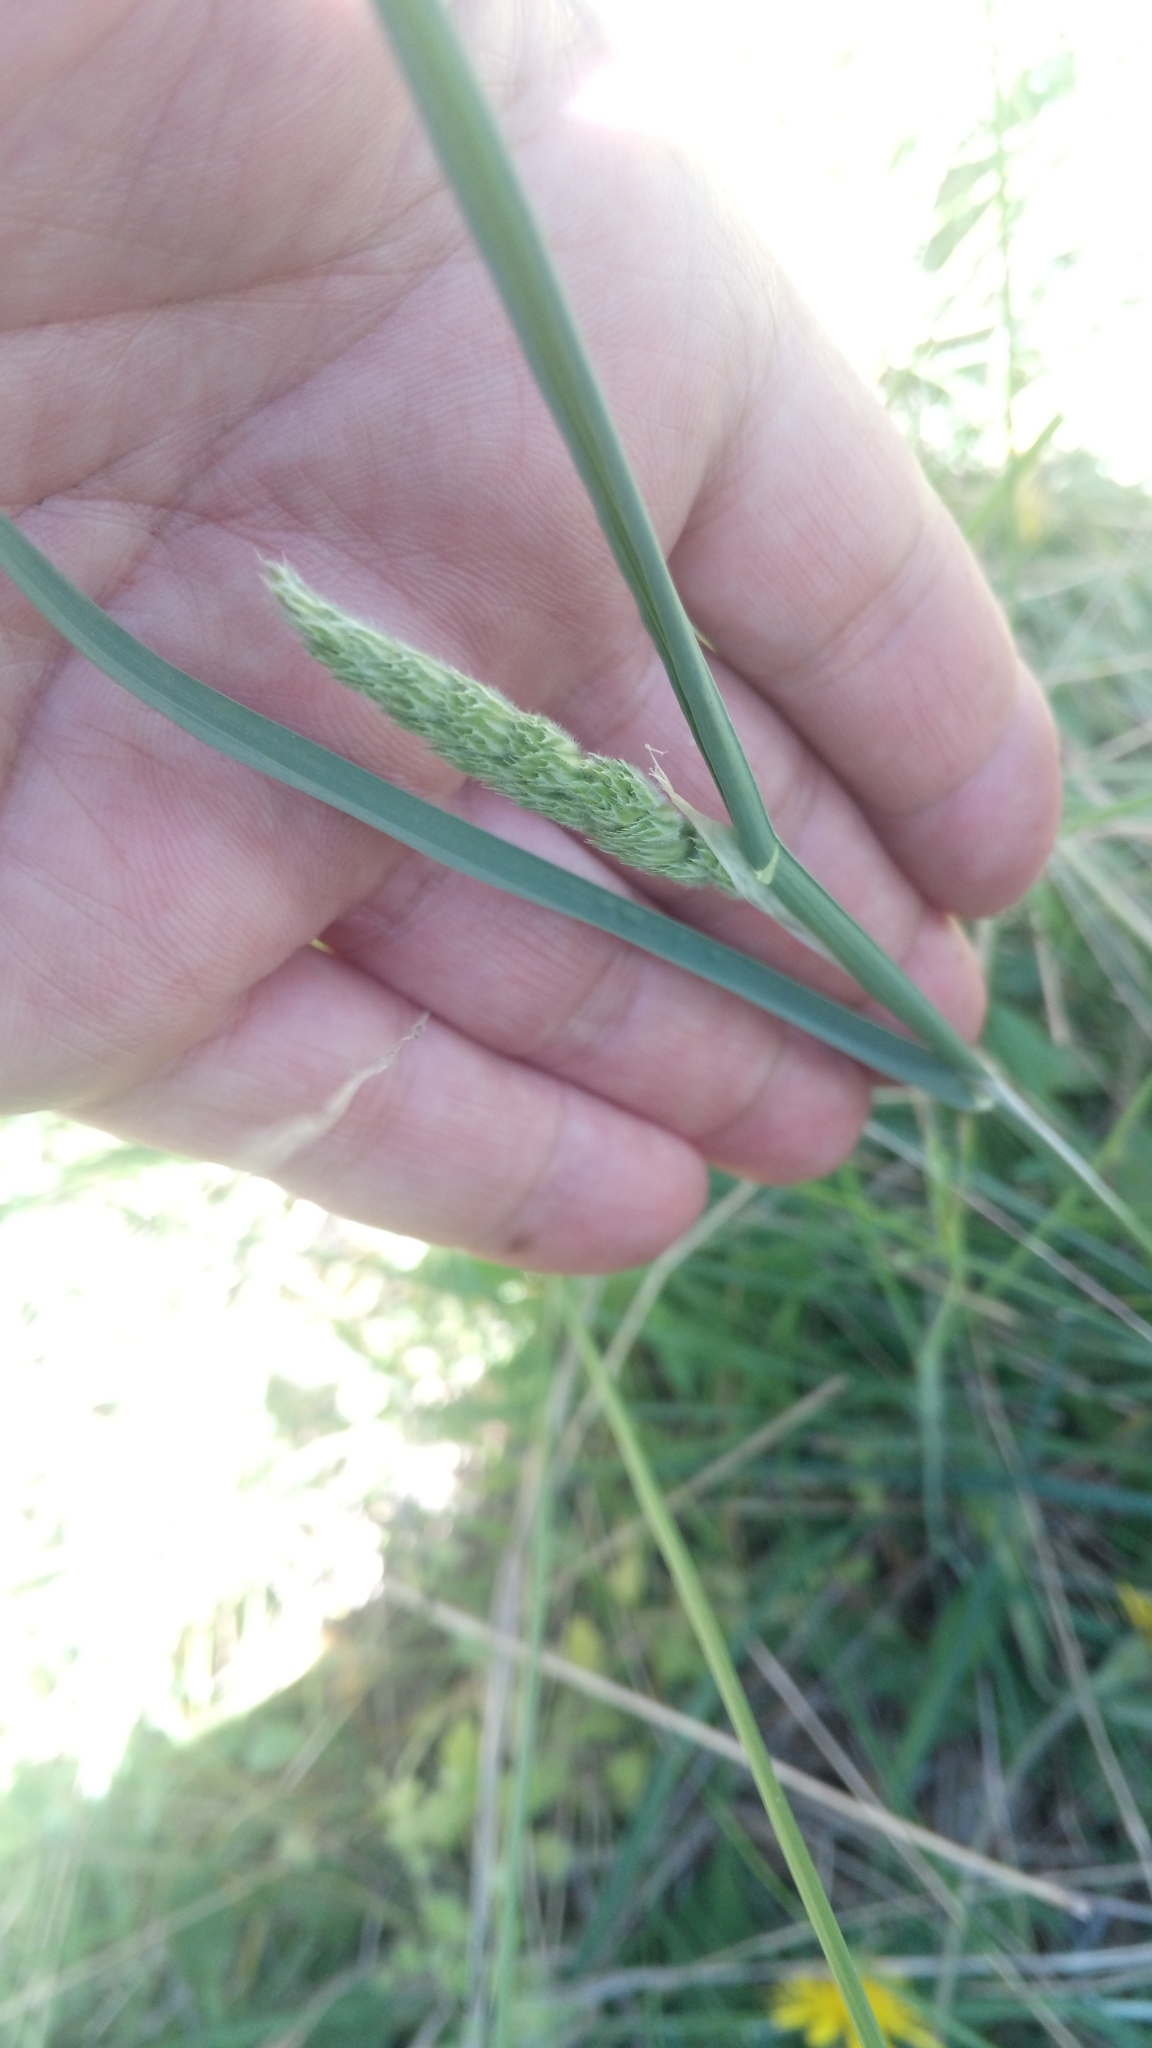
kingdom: Plantae
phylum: Tracheophyta
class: Liliopsida
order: Poales
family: Poaceae
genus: Dactylis
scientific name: Dactylis glomerata
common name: Orchardgrass
